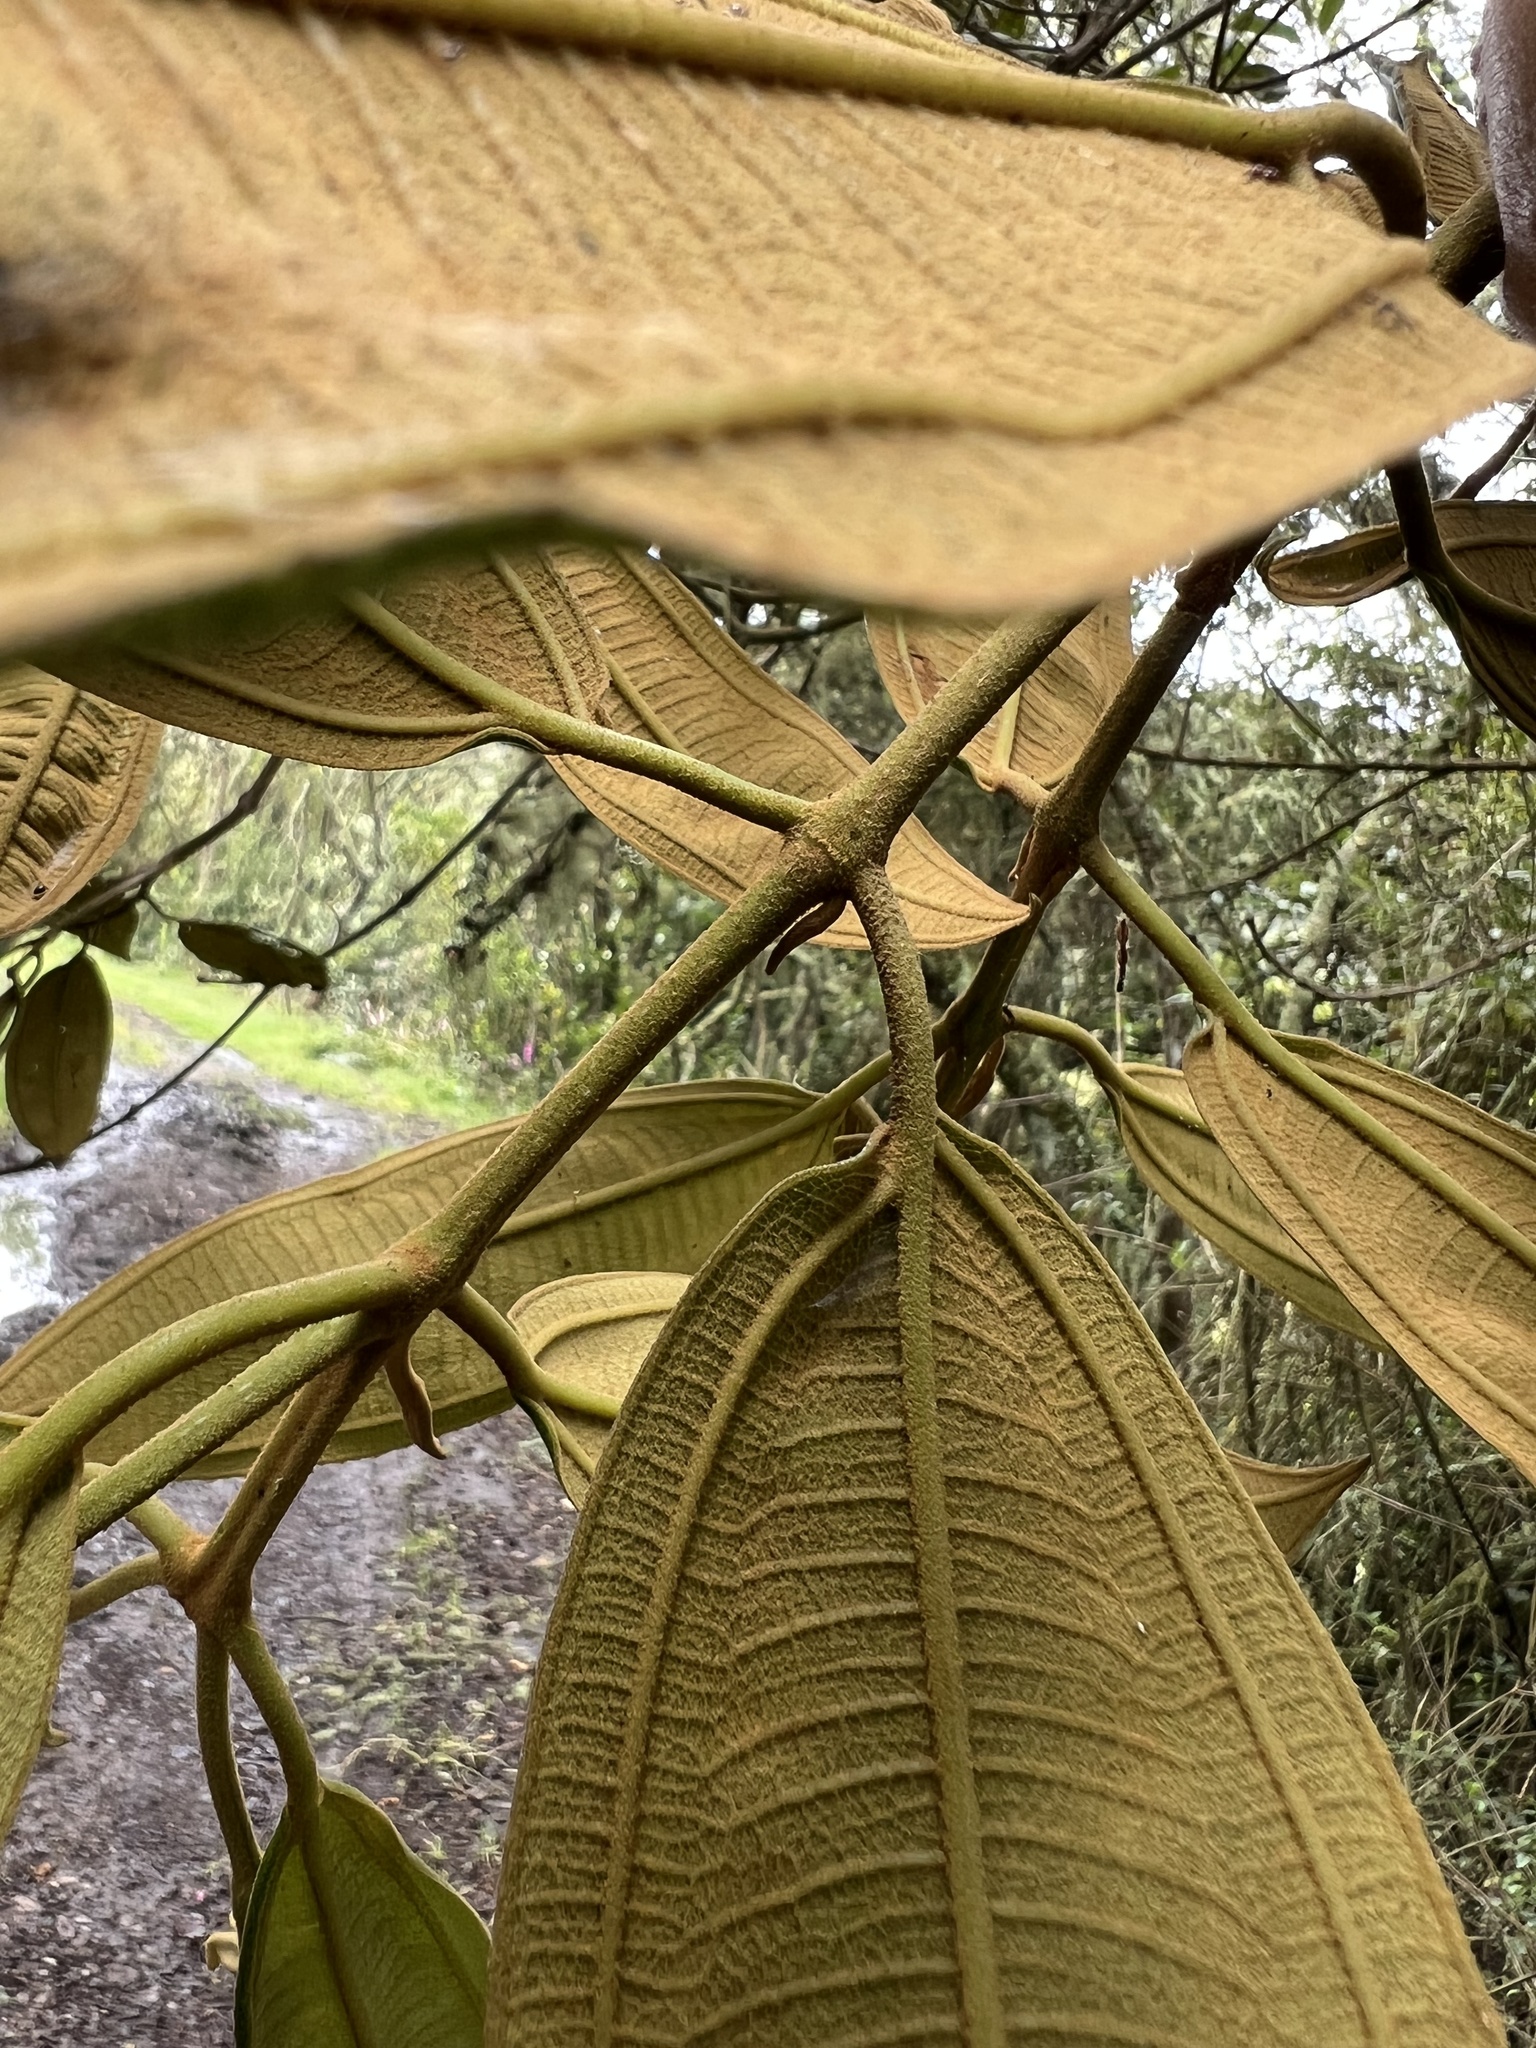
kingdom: Plantae
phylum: Tracheophyta
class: Magnoliopsida
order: Myrtales
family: Melastomataceae
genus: Miconia
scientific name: Miconia biappendiculata
